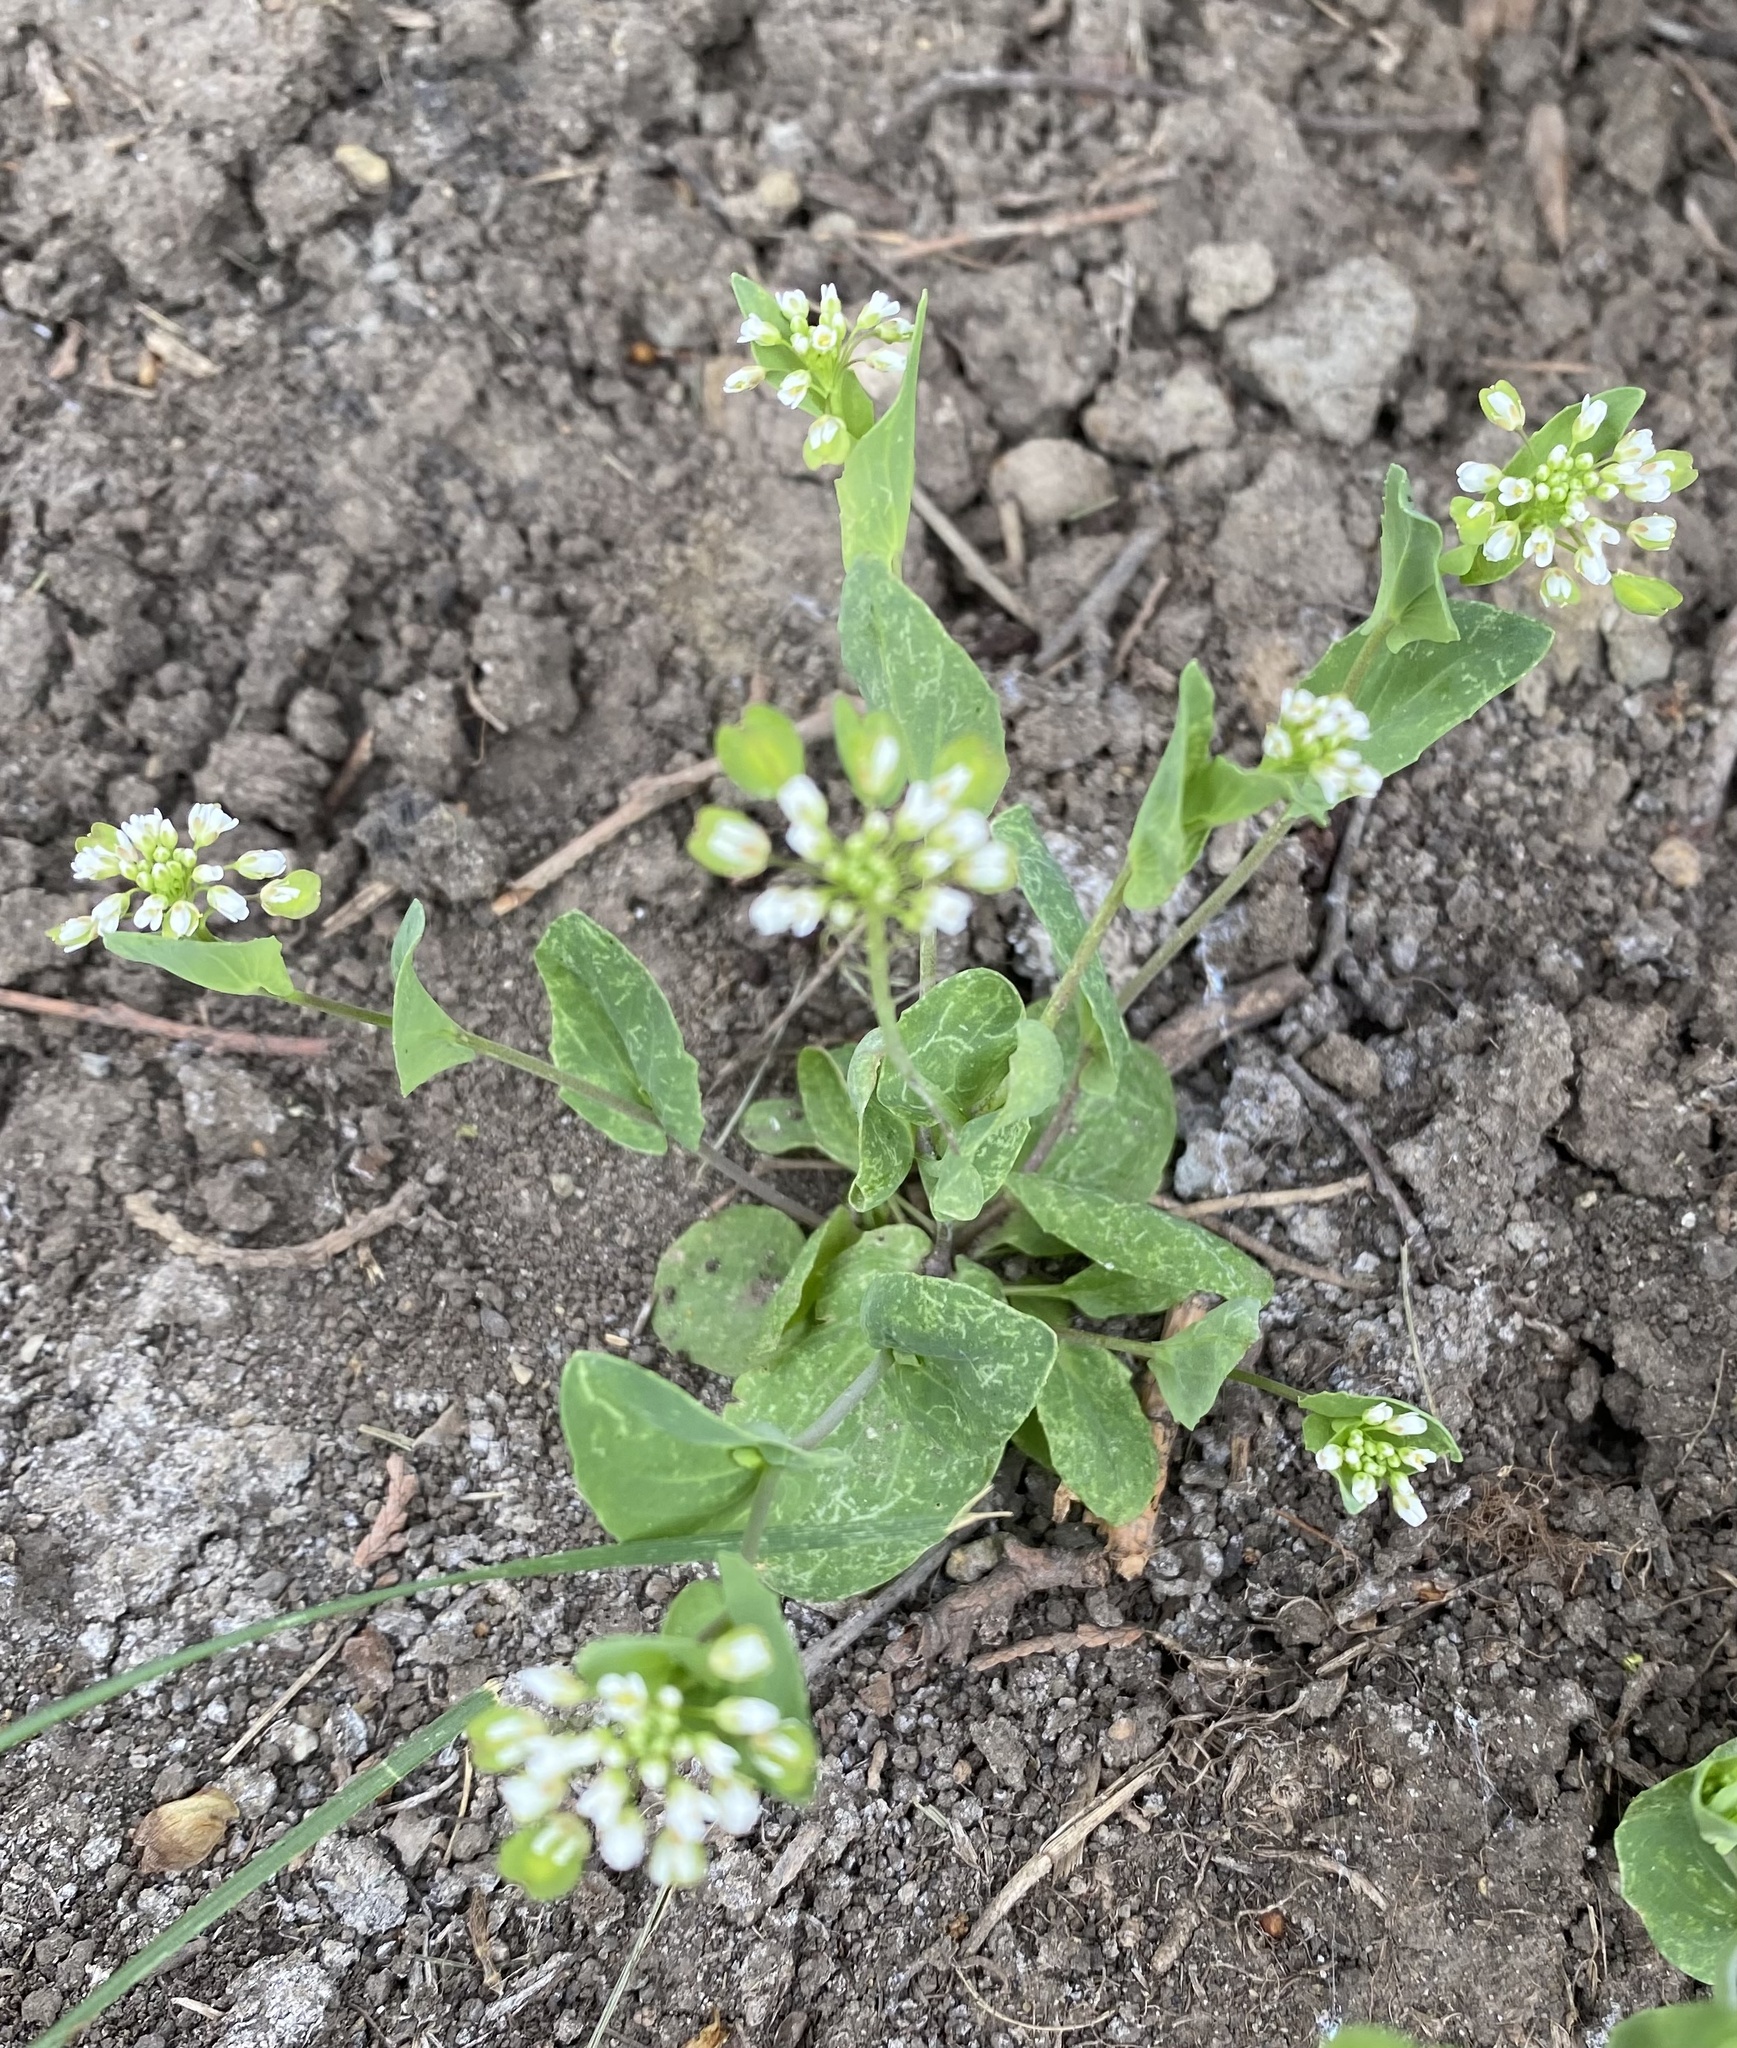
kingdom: Plantae
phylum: Tracheophyta
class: Magnoliopsida
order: Brassicales
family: Brassicaceae
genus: Noccaea
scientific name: Noccaea perfoliata
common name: Perfoliate pennycress
